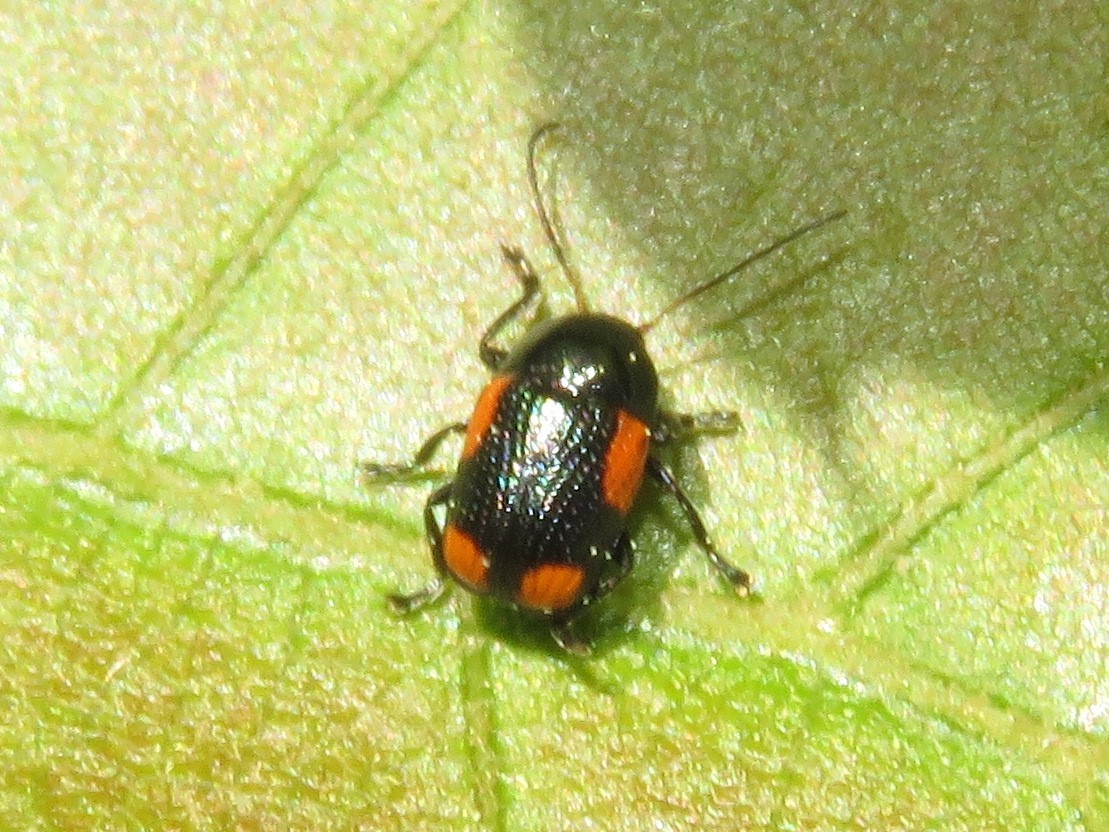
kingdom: Animalia
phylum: Arthropoda
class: Insecta
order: Coleoptera
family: Chrysomelidae
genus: Cryptocephalus
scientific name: Cryptocephalus notatus
